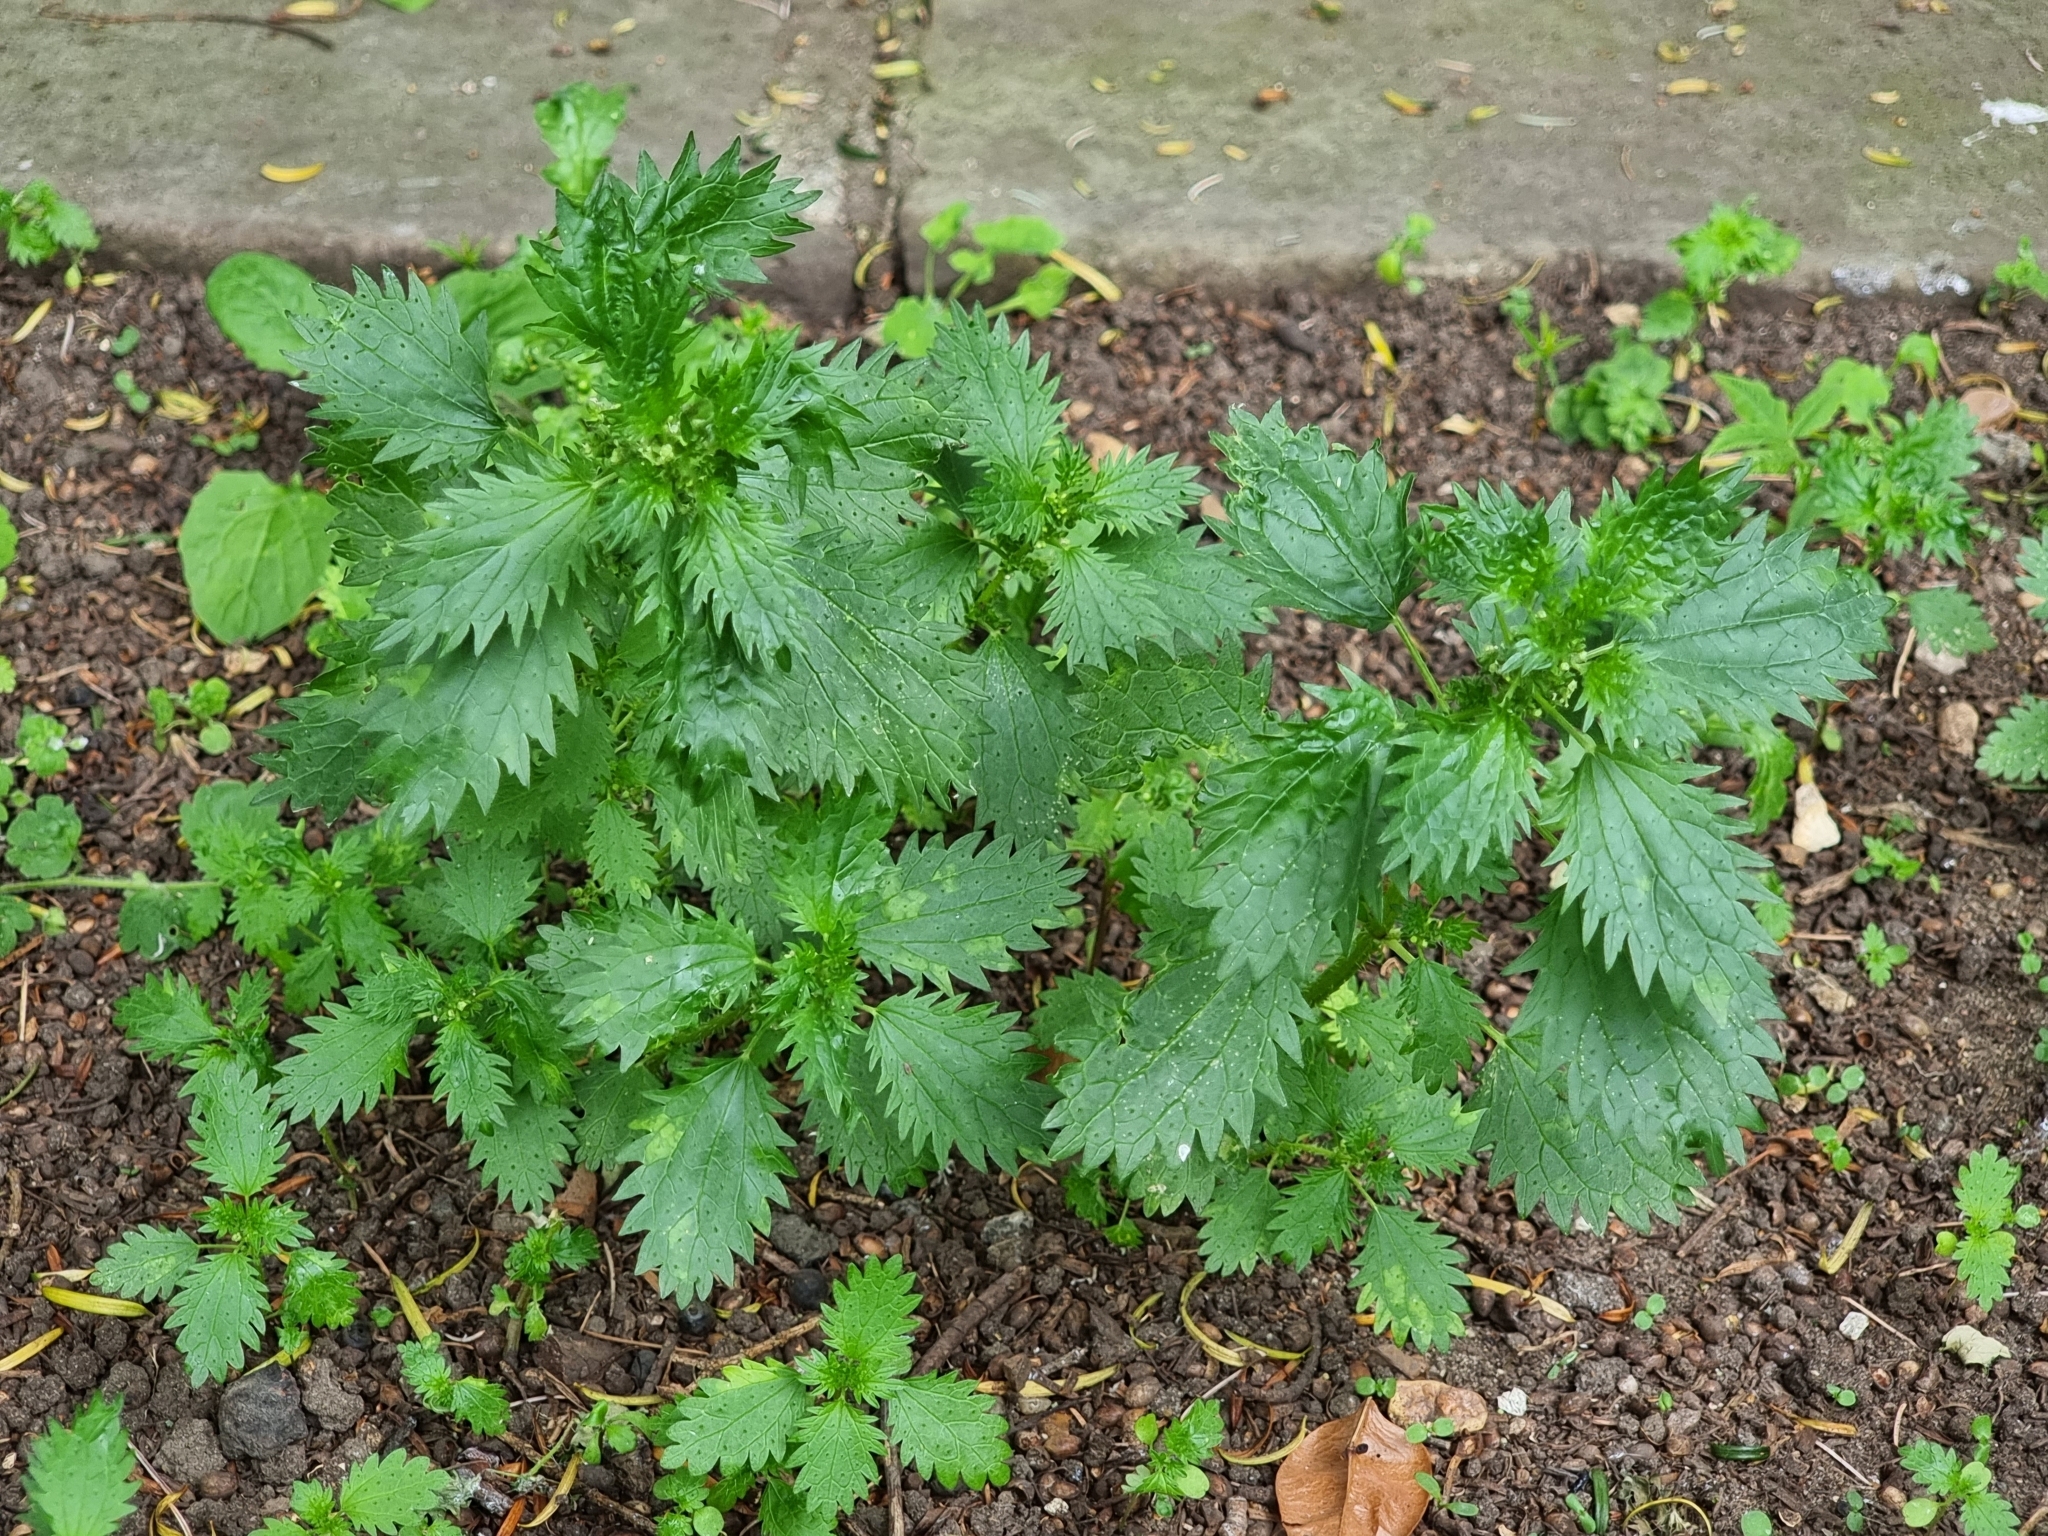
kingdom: Plantae
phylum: Tracheophyta
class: Magnoliopsida
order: Rosales
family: Urticaceae
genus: Urtica
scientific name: Urtica urens
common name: Dwarf nettle
